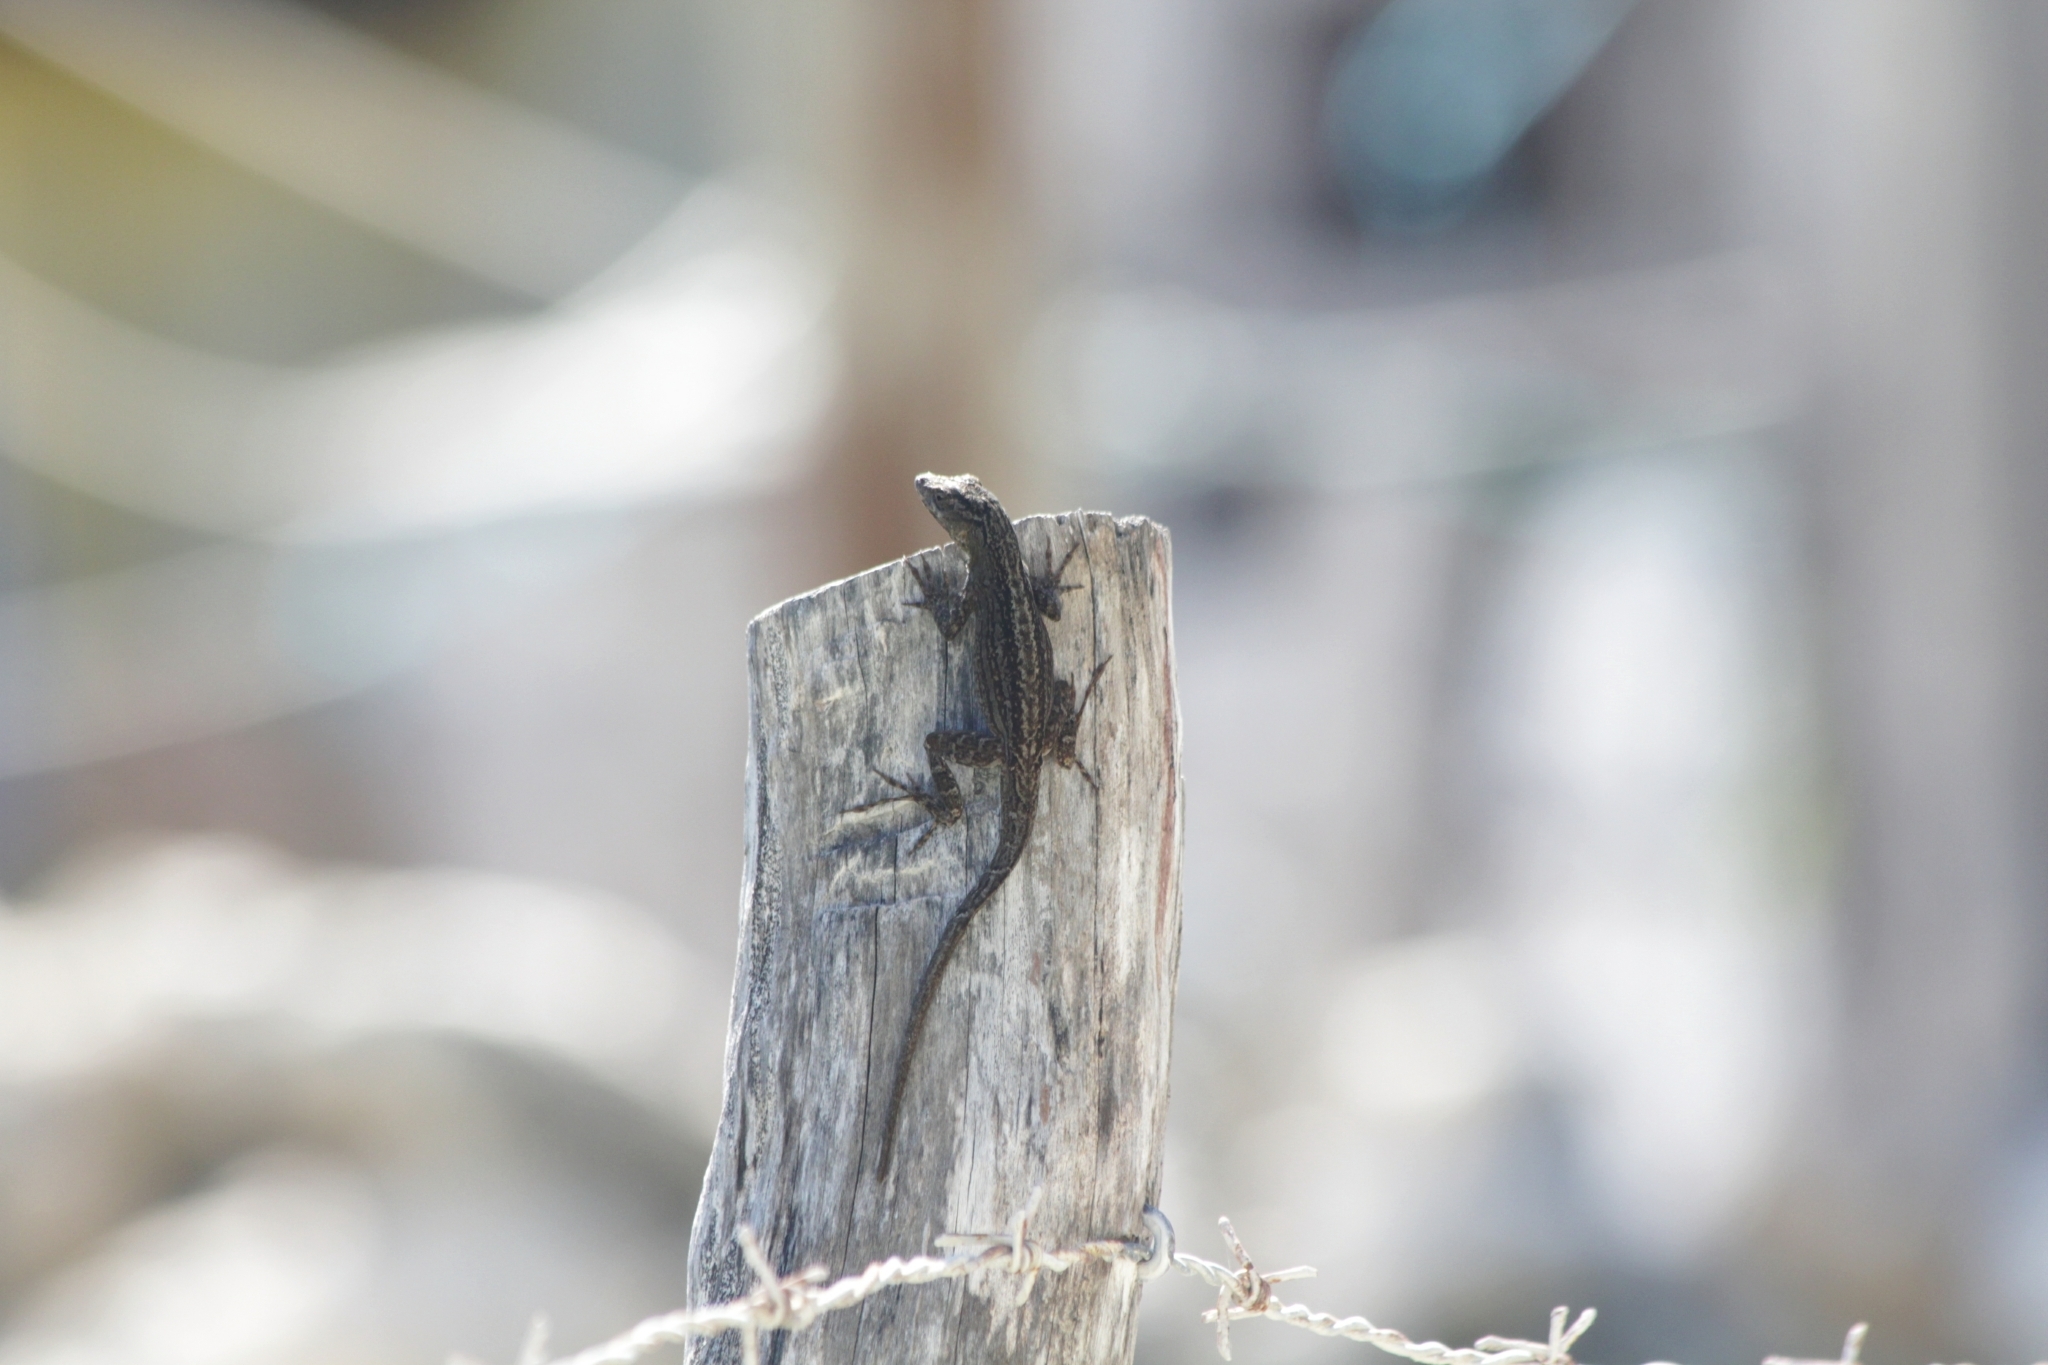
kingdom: Animalia
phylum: Chordata
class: Squamata
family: Dactyloidae
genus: Anolis
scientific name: Anolis sagrei
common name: Brown anole
